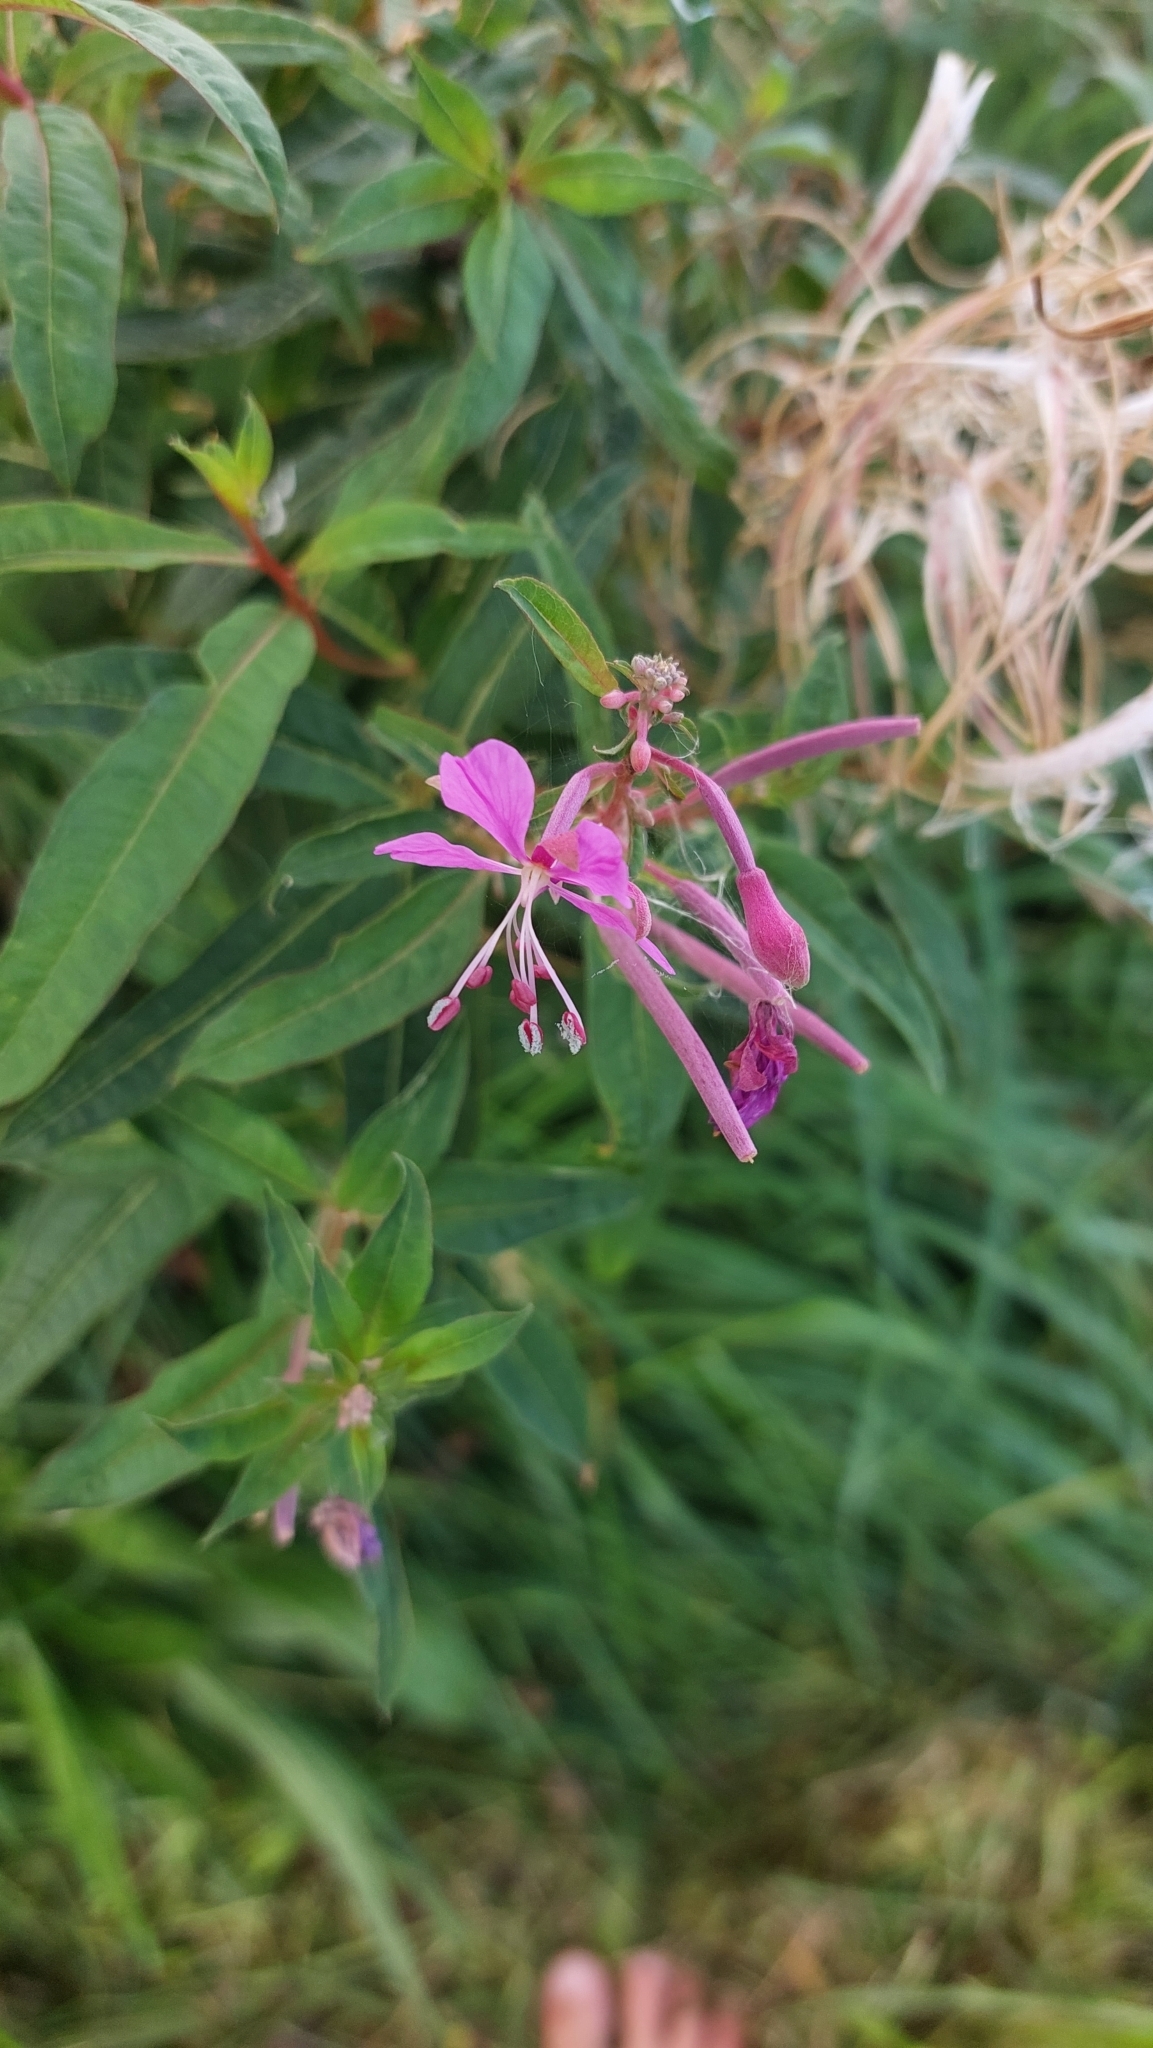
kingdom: Plantae
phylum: Tracheophyta
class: Magnoliopsida
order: Myrtales
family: Onagraceae
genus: Chamaenerion
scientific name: Chamaenerion angustifolium
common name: Fireweed
